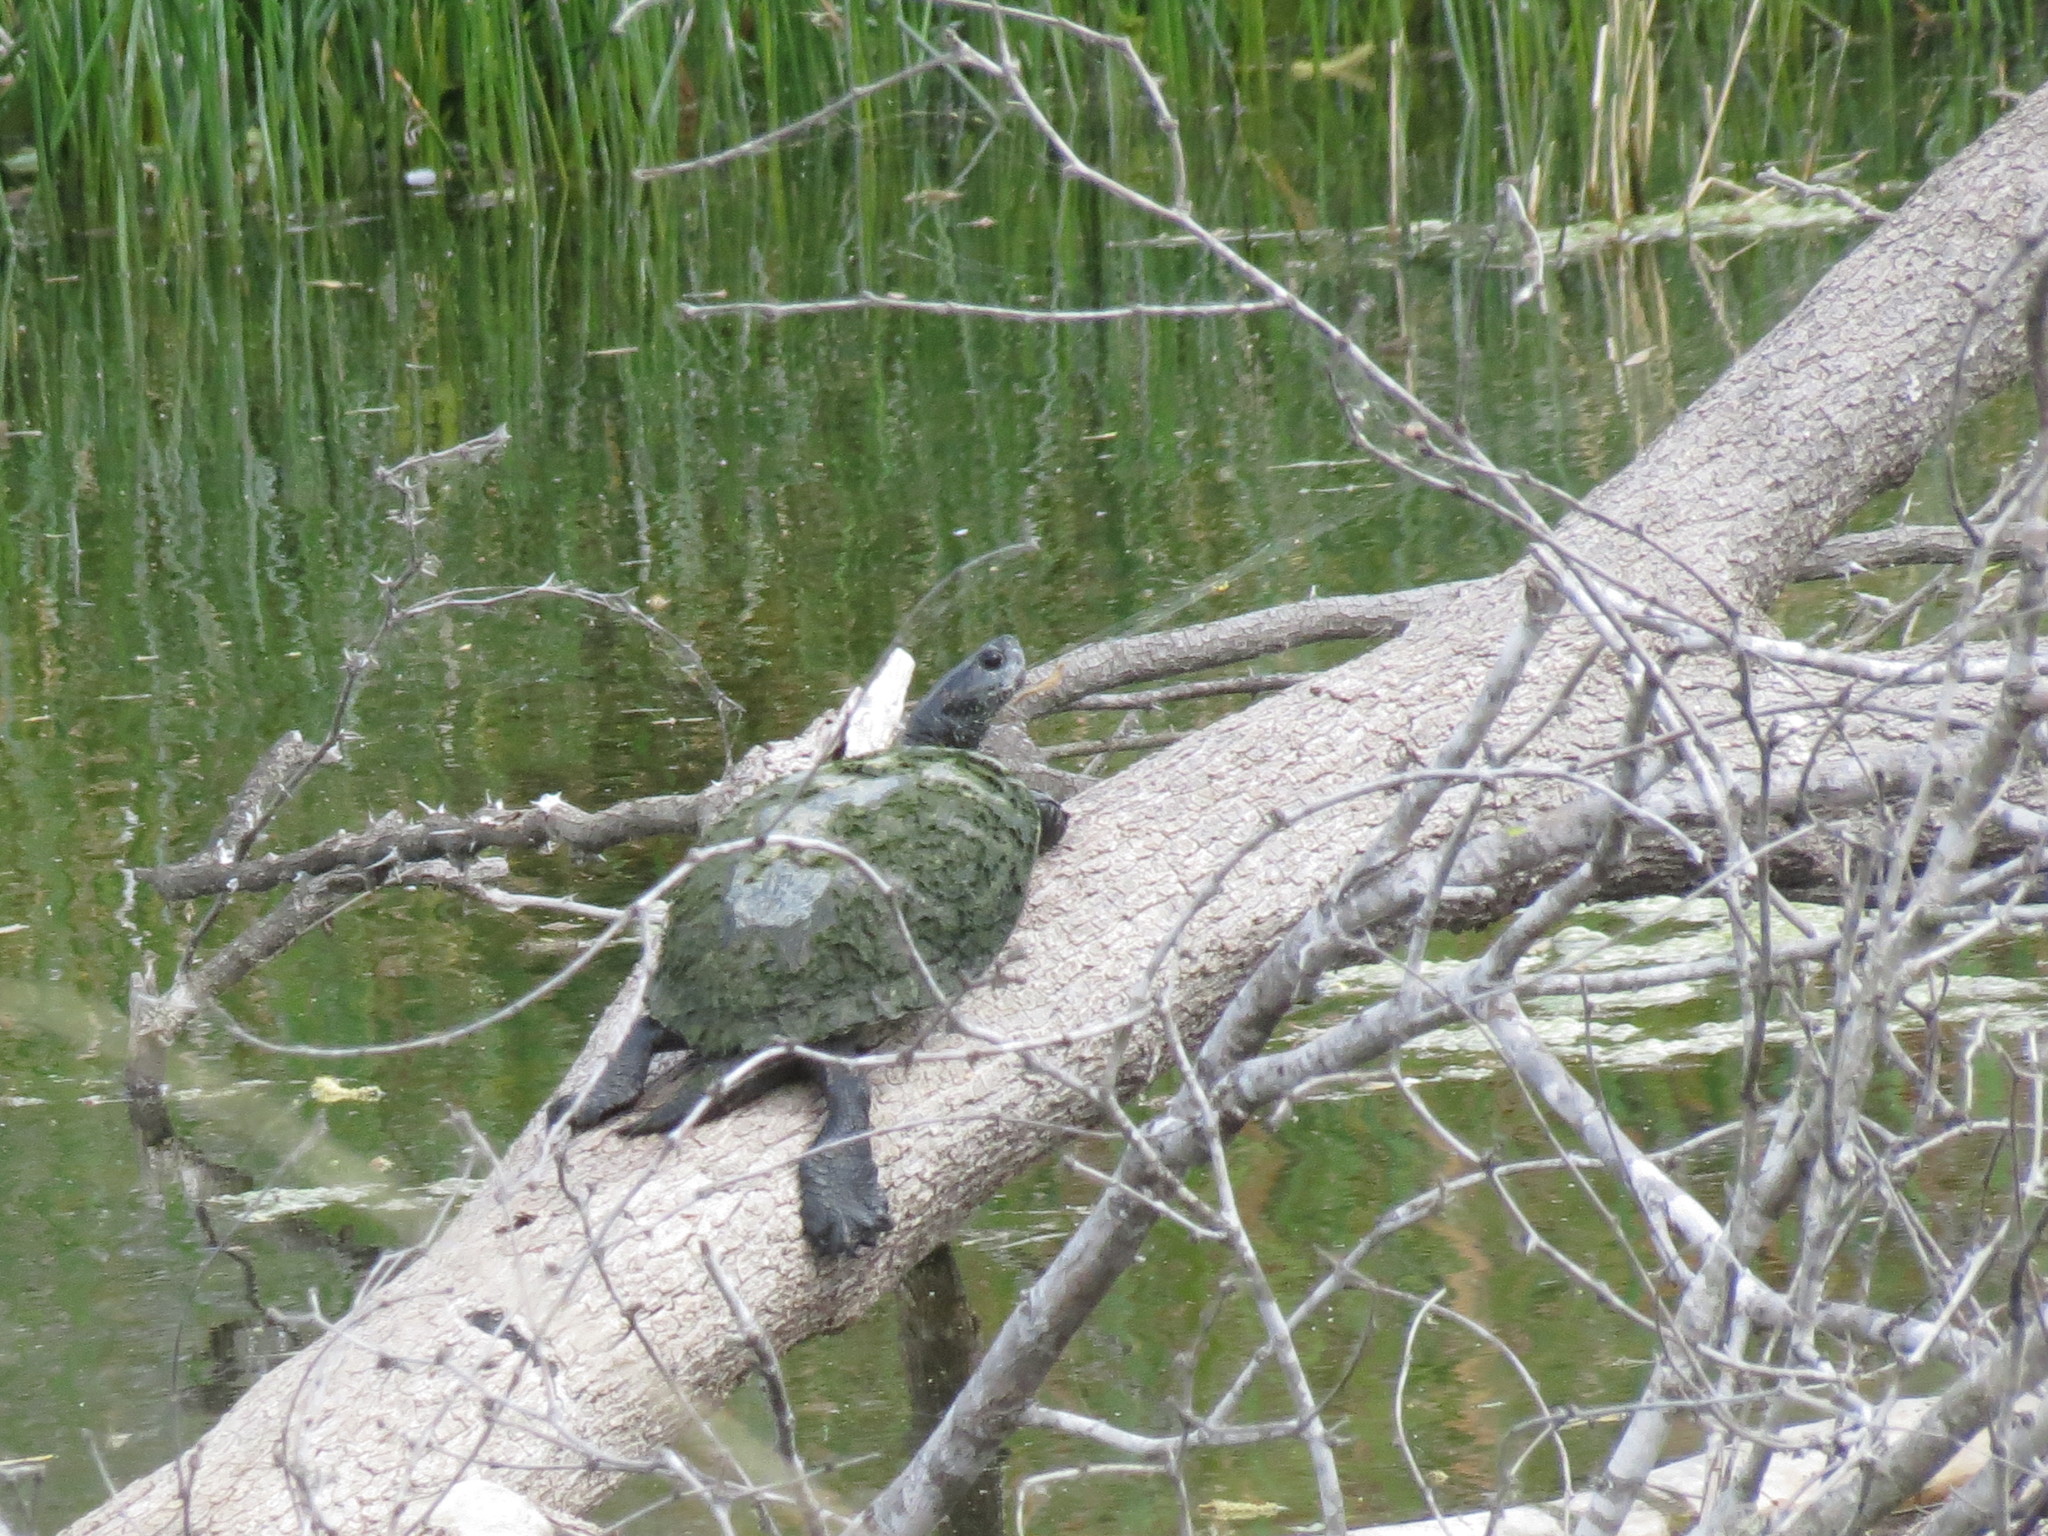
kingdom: Animalia
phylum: Chordata
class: Testudines
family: Emydidae
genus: Trachemys
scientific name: Trachemys scripta
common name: Slider
